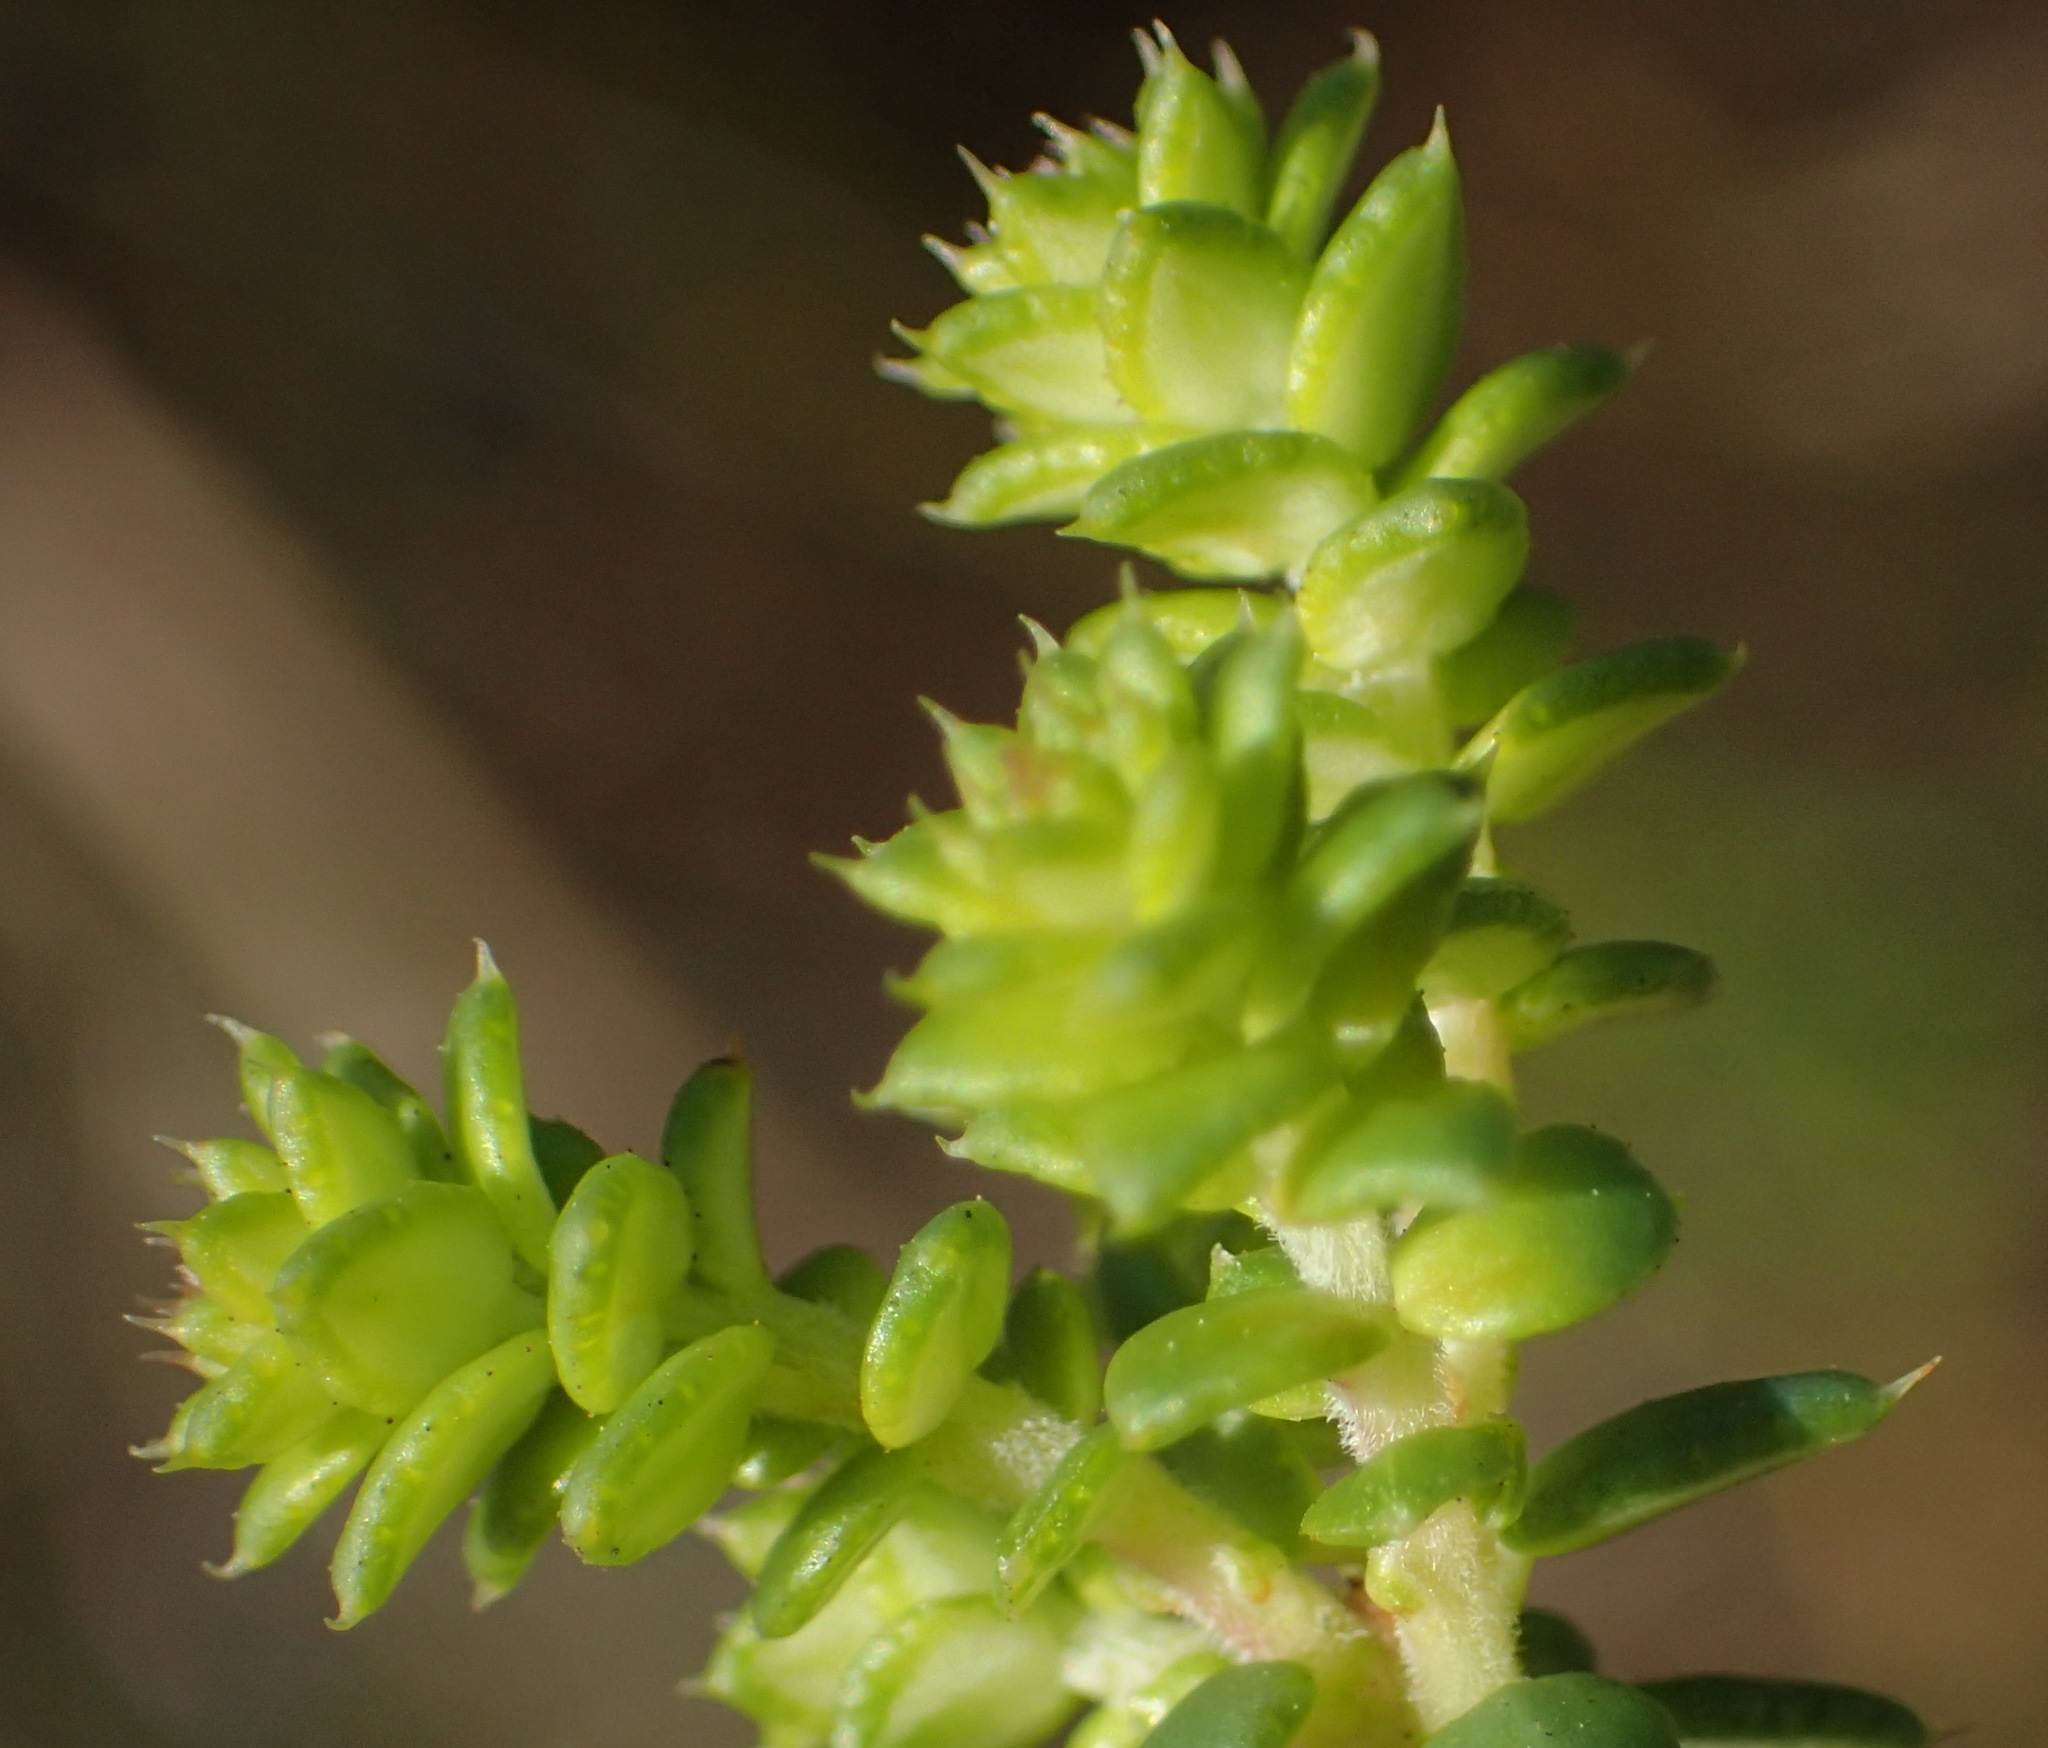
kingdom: Plantae
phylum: Tracheophyta
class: Magnoliopsida
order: Sapindales
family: Rutaceae
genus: Agathosma
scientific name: Agathosma apiculata
